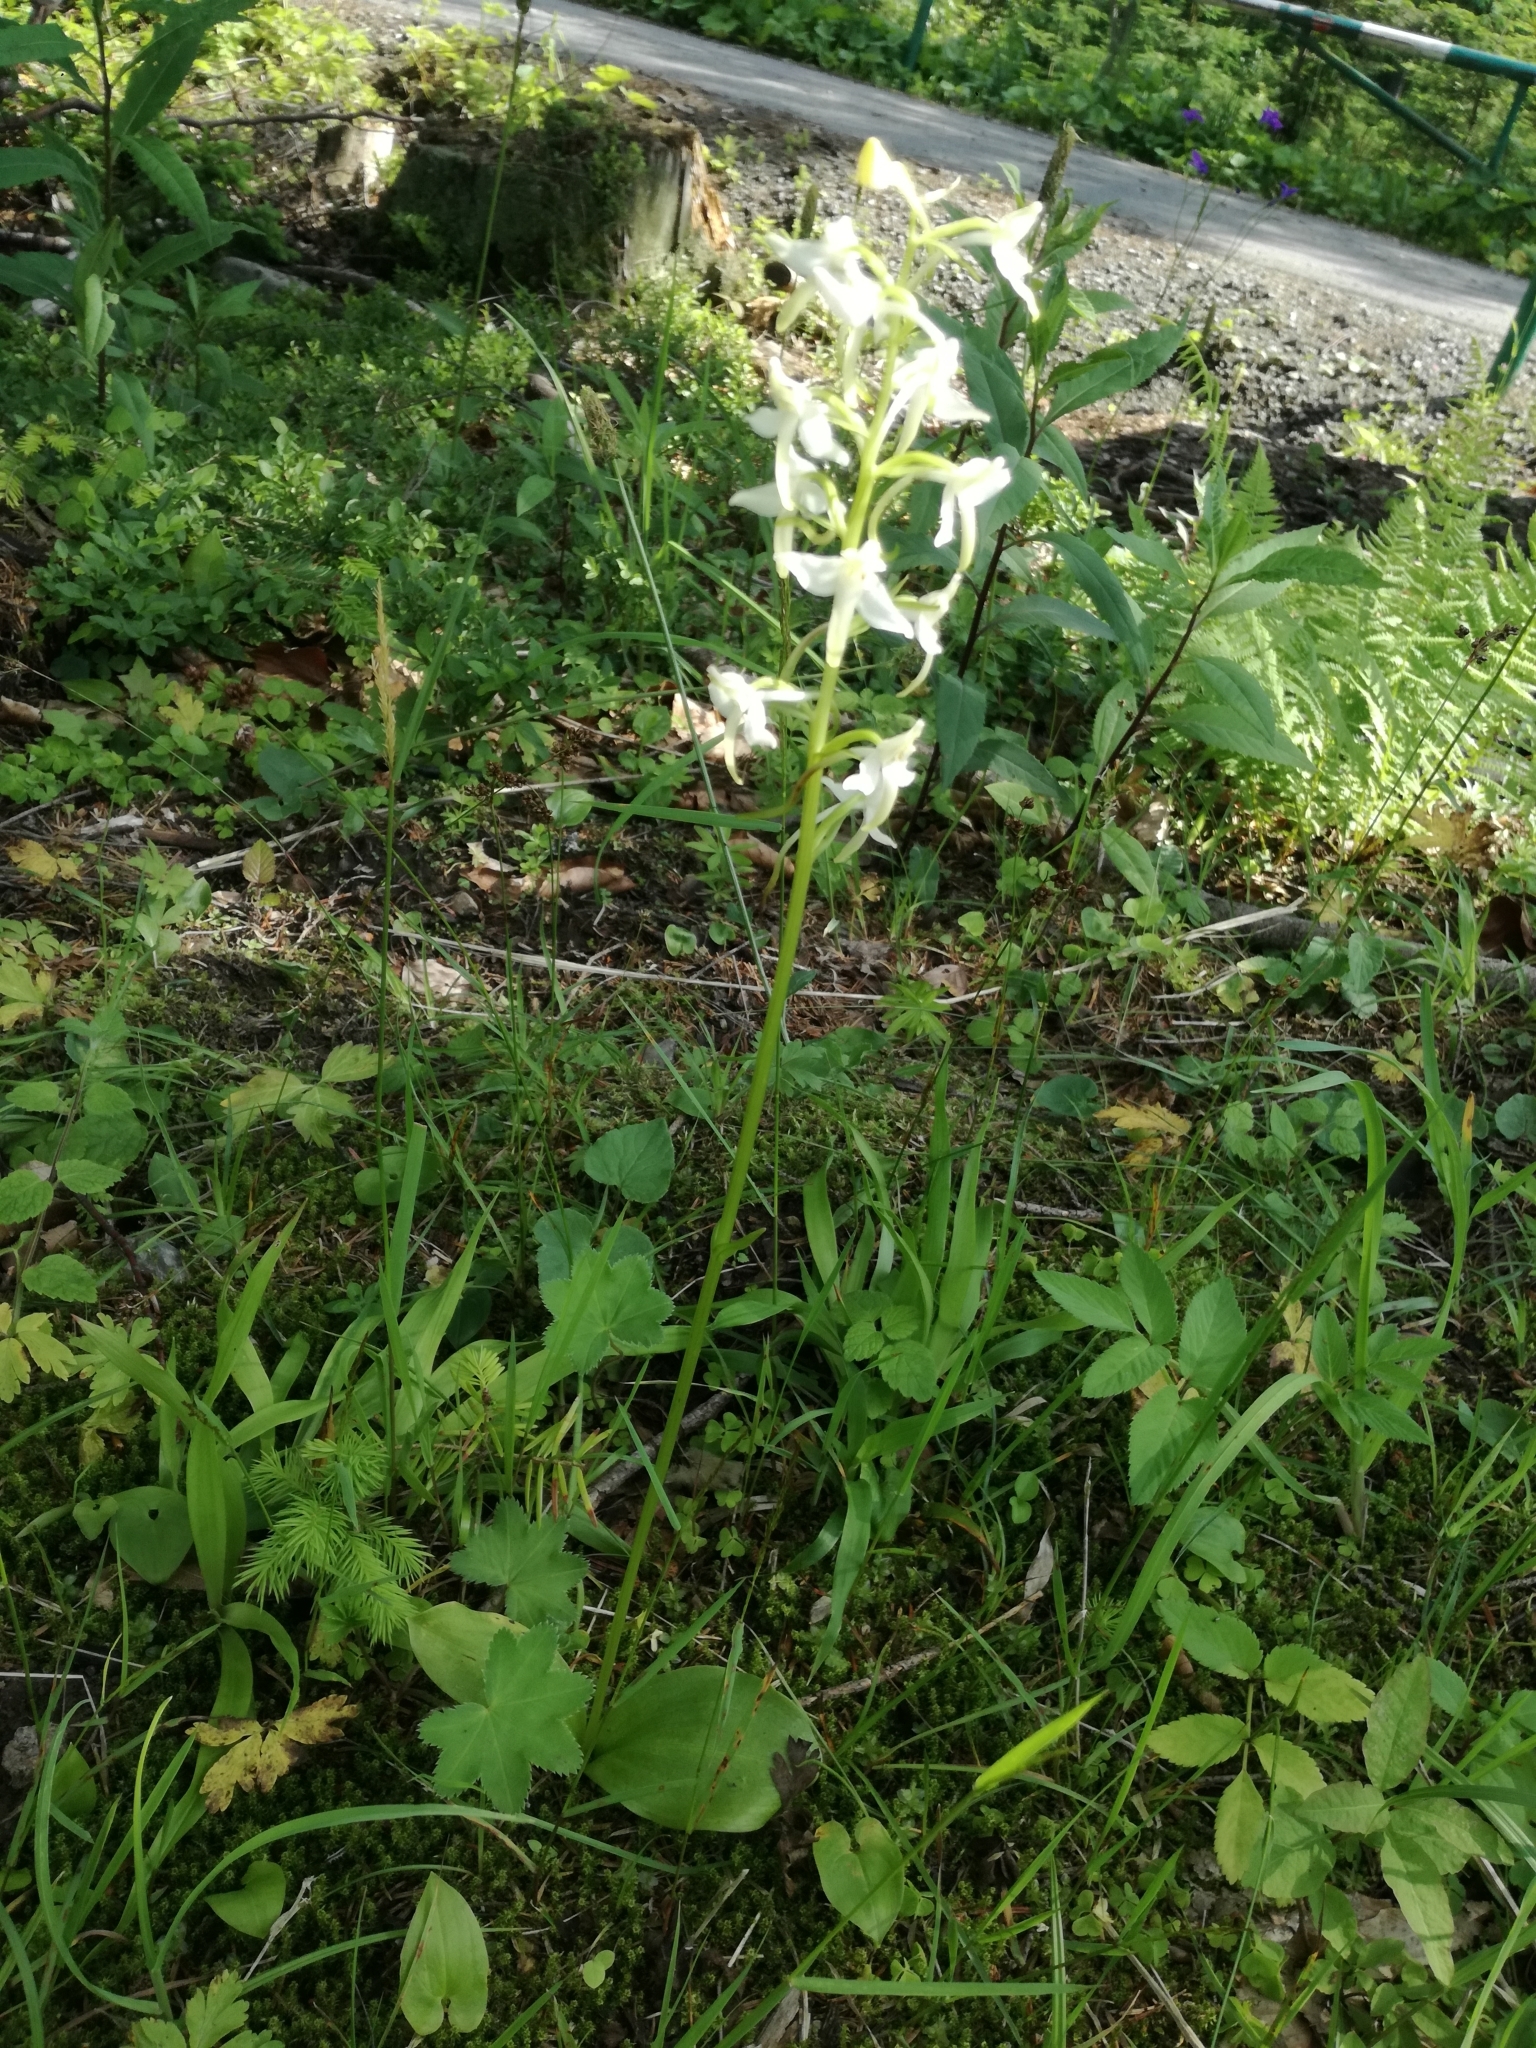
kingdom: Plantae
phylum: Tracheophyta
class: Liliopsida
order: Asparagales
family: Orchidaceae
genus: Platanthera
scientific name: Platanthera bifolia
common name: Lesser butterfly-orchid
